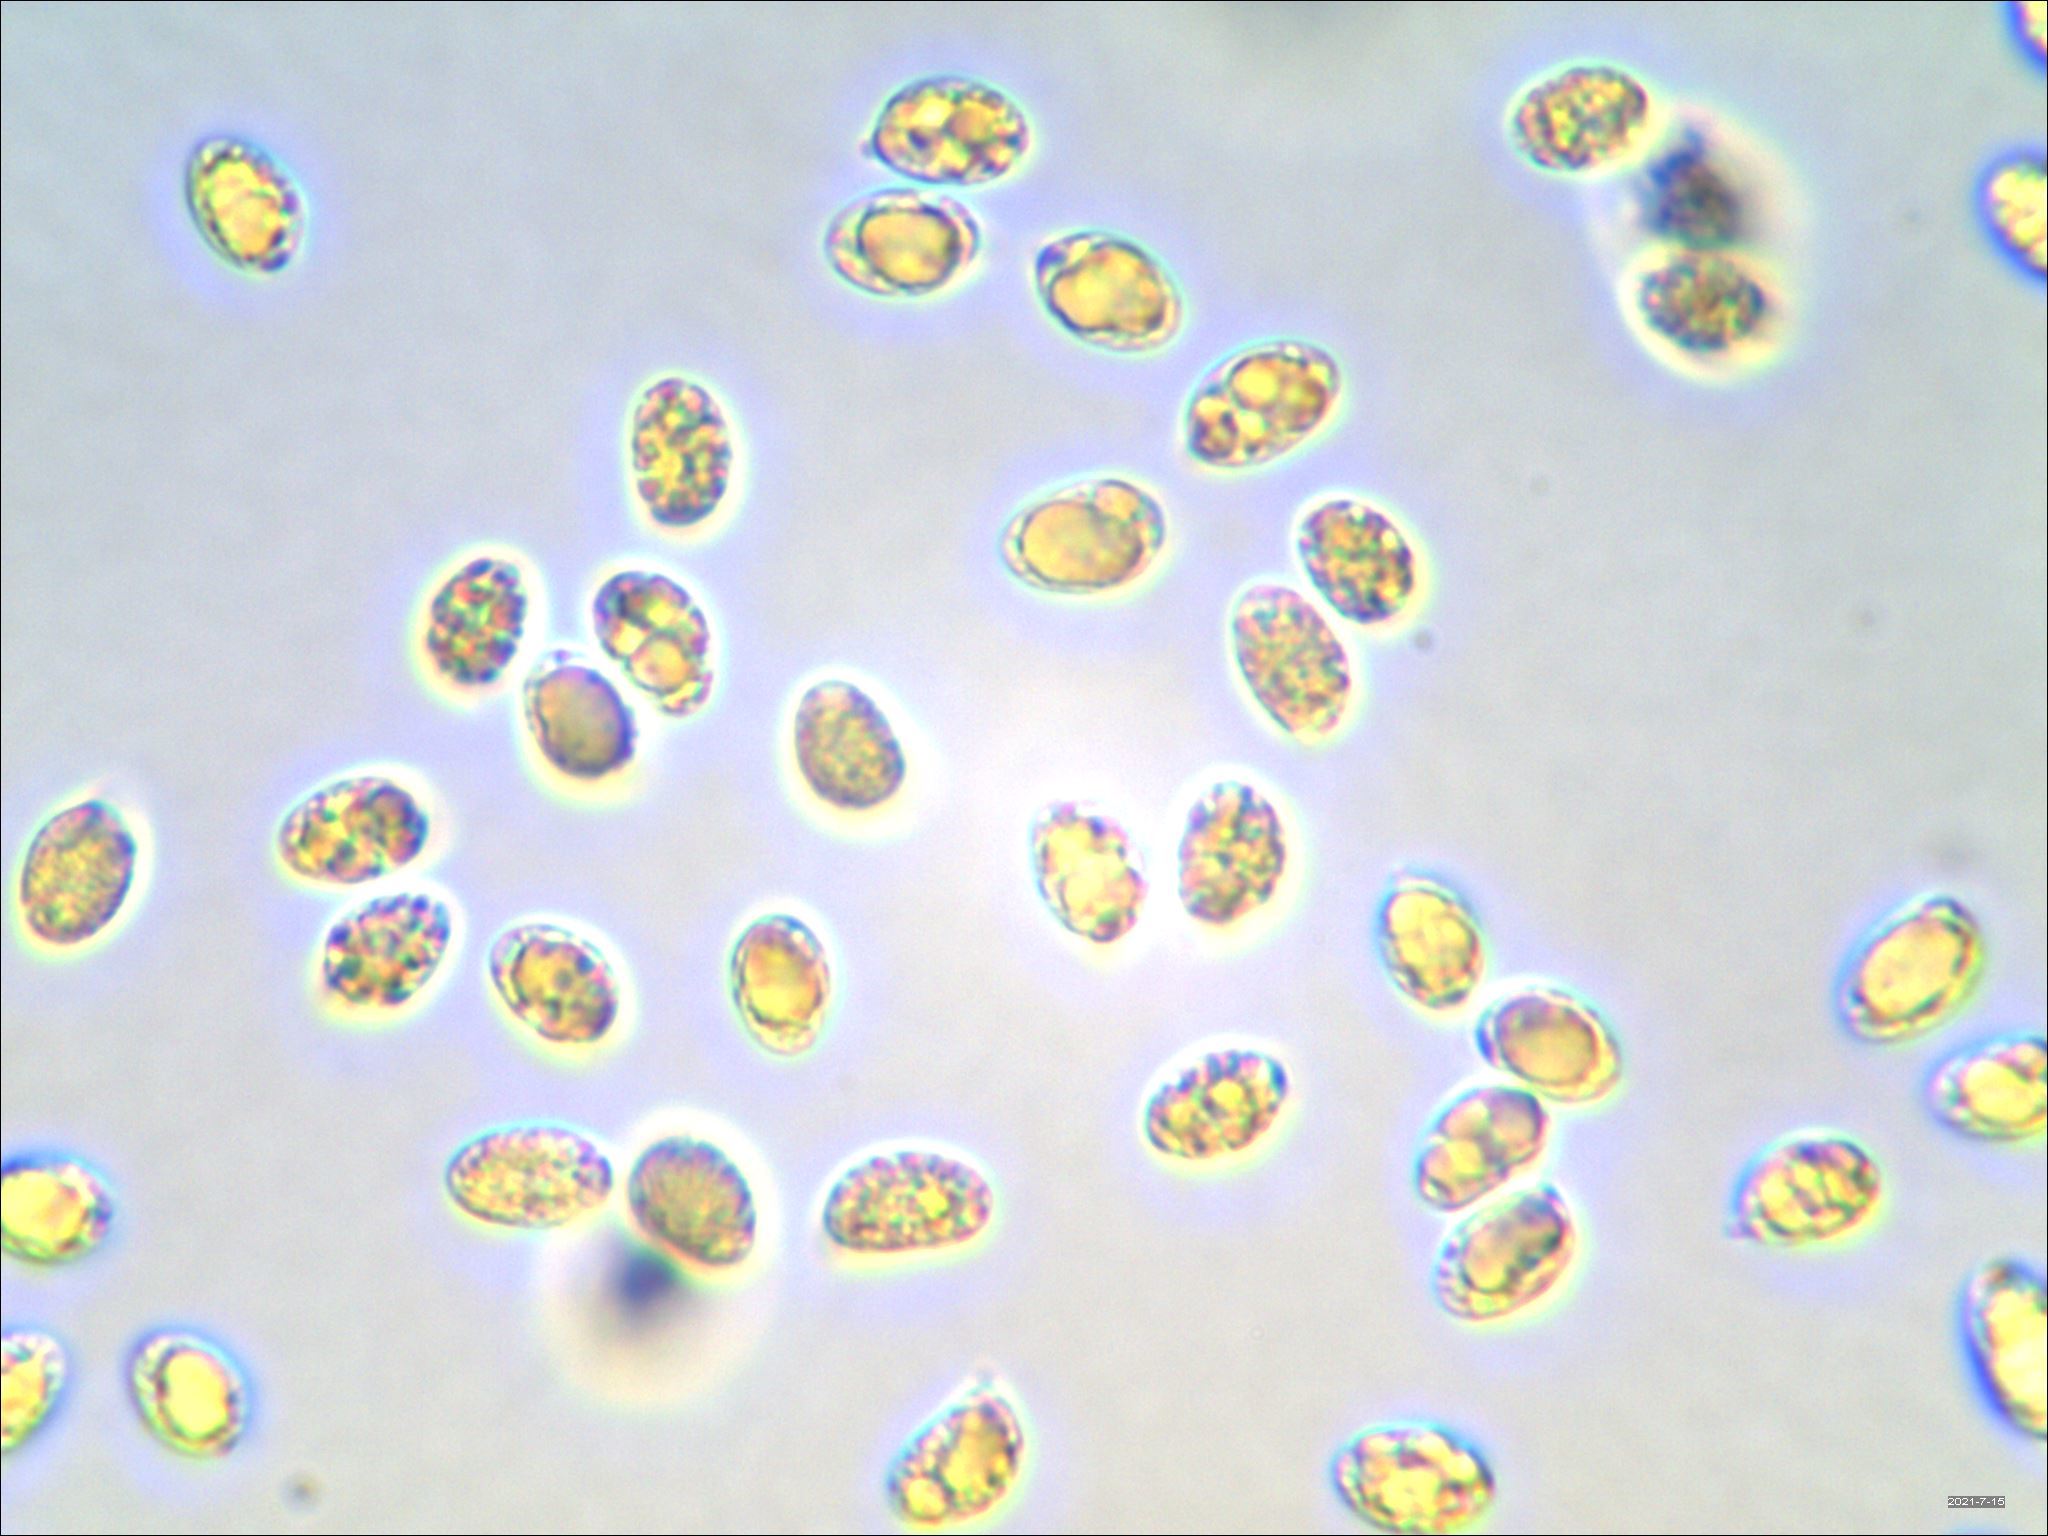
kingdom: Fungi
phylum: Basidiomycota
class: Agaricomycetes
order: Agaricales
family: Hygrophoraceae
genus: Hygrocybe
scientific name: Hygrocybe ingrata
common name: Dingy waxcap
